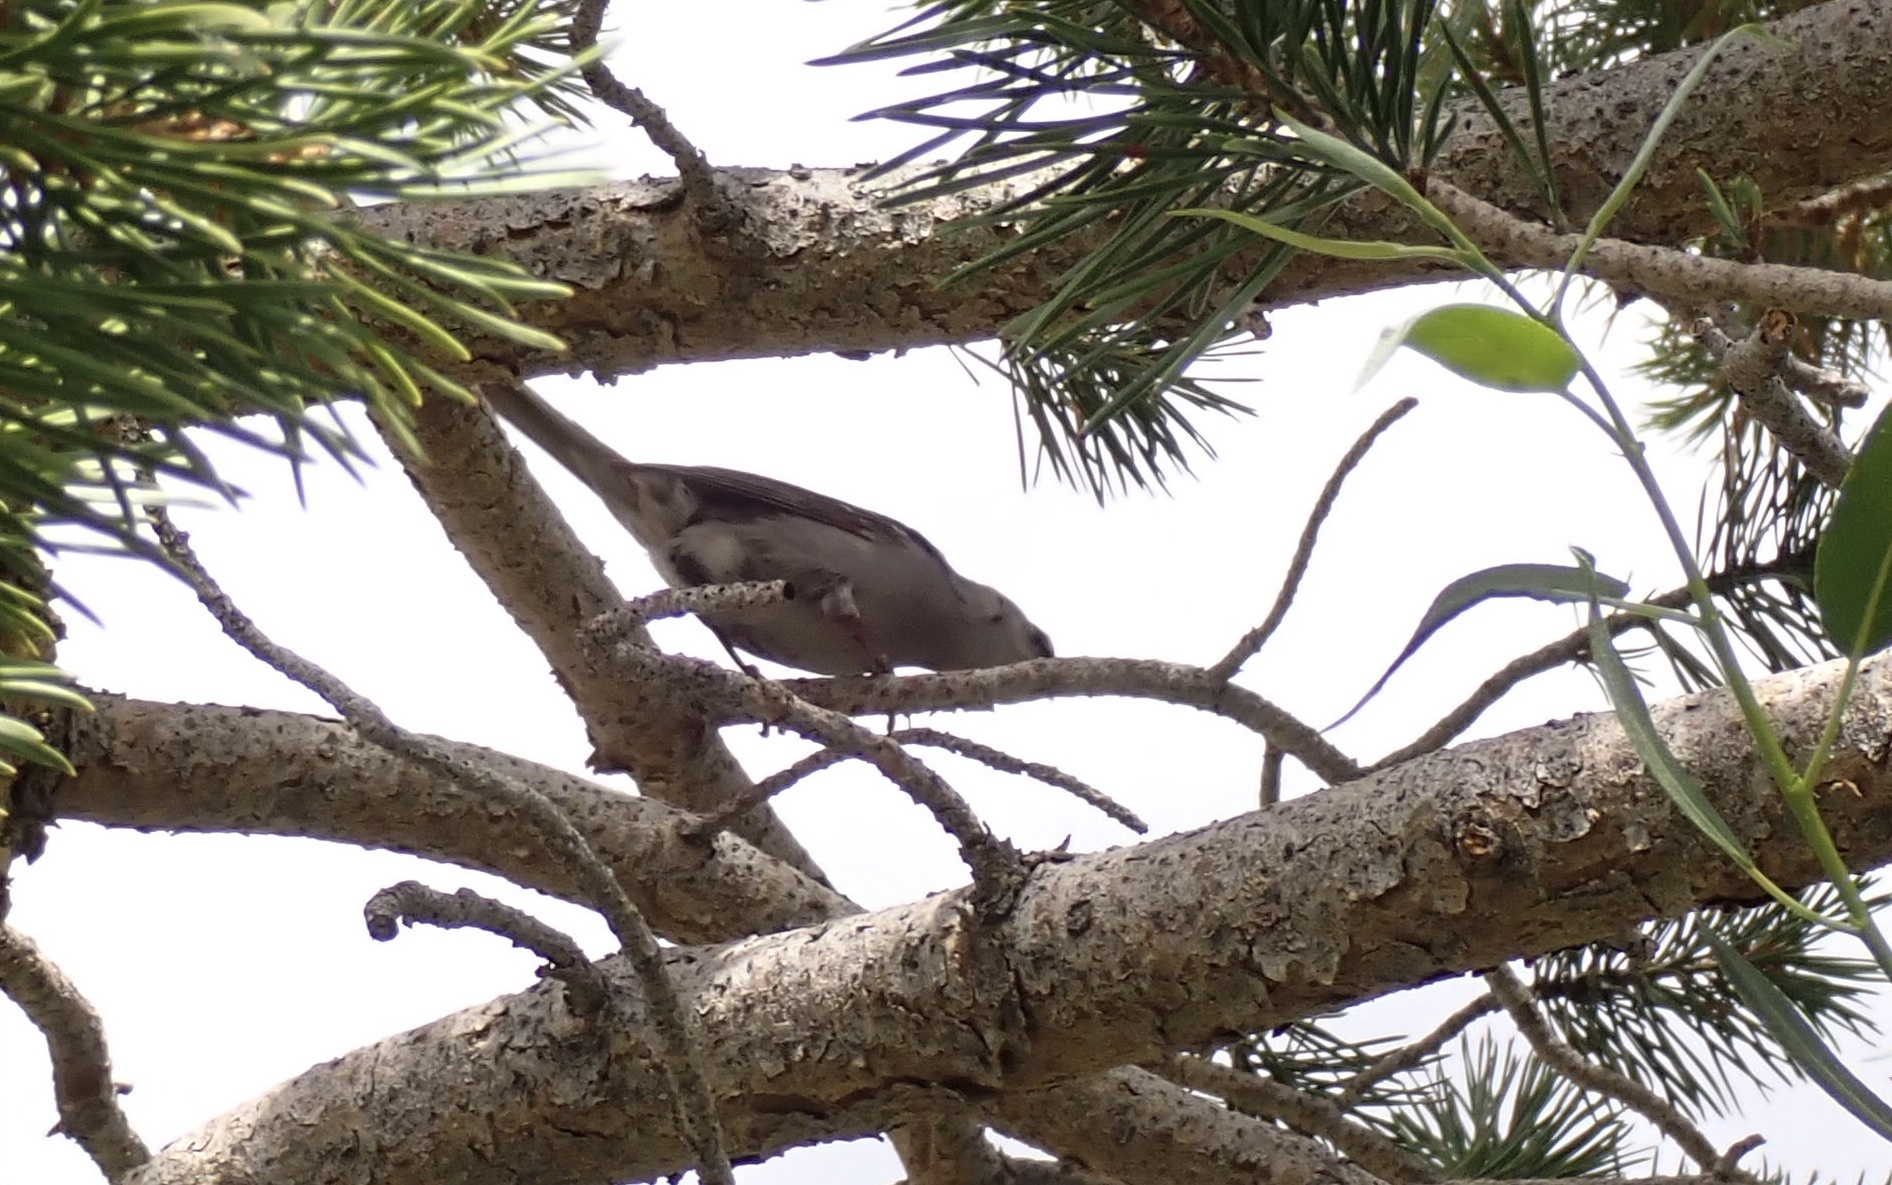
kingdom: Animalia
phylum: Chordata
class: Aves
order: Passeriformes
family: Passerellidae
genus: Zonotrichia
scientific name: Zonotrichia leucophrys
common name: White-crowned sparrow
